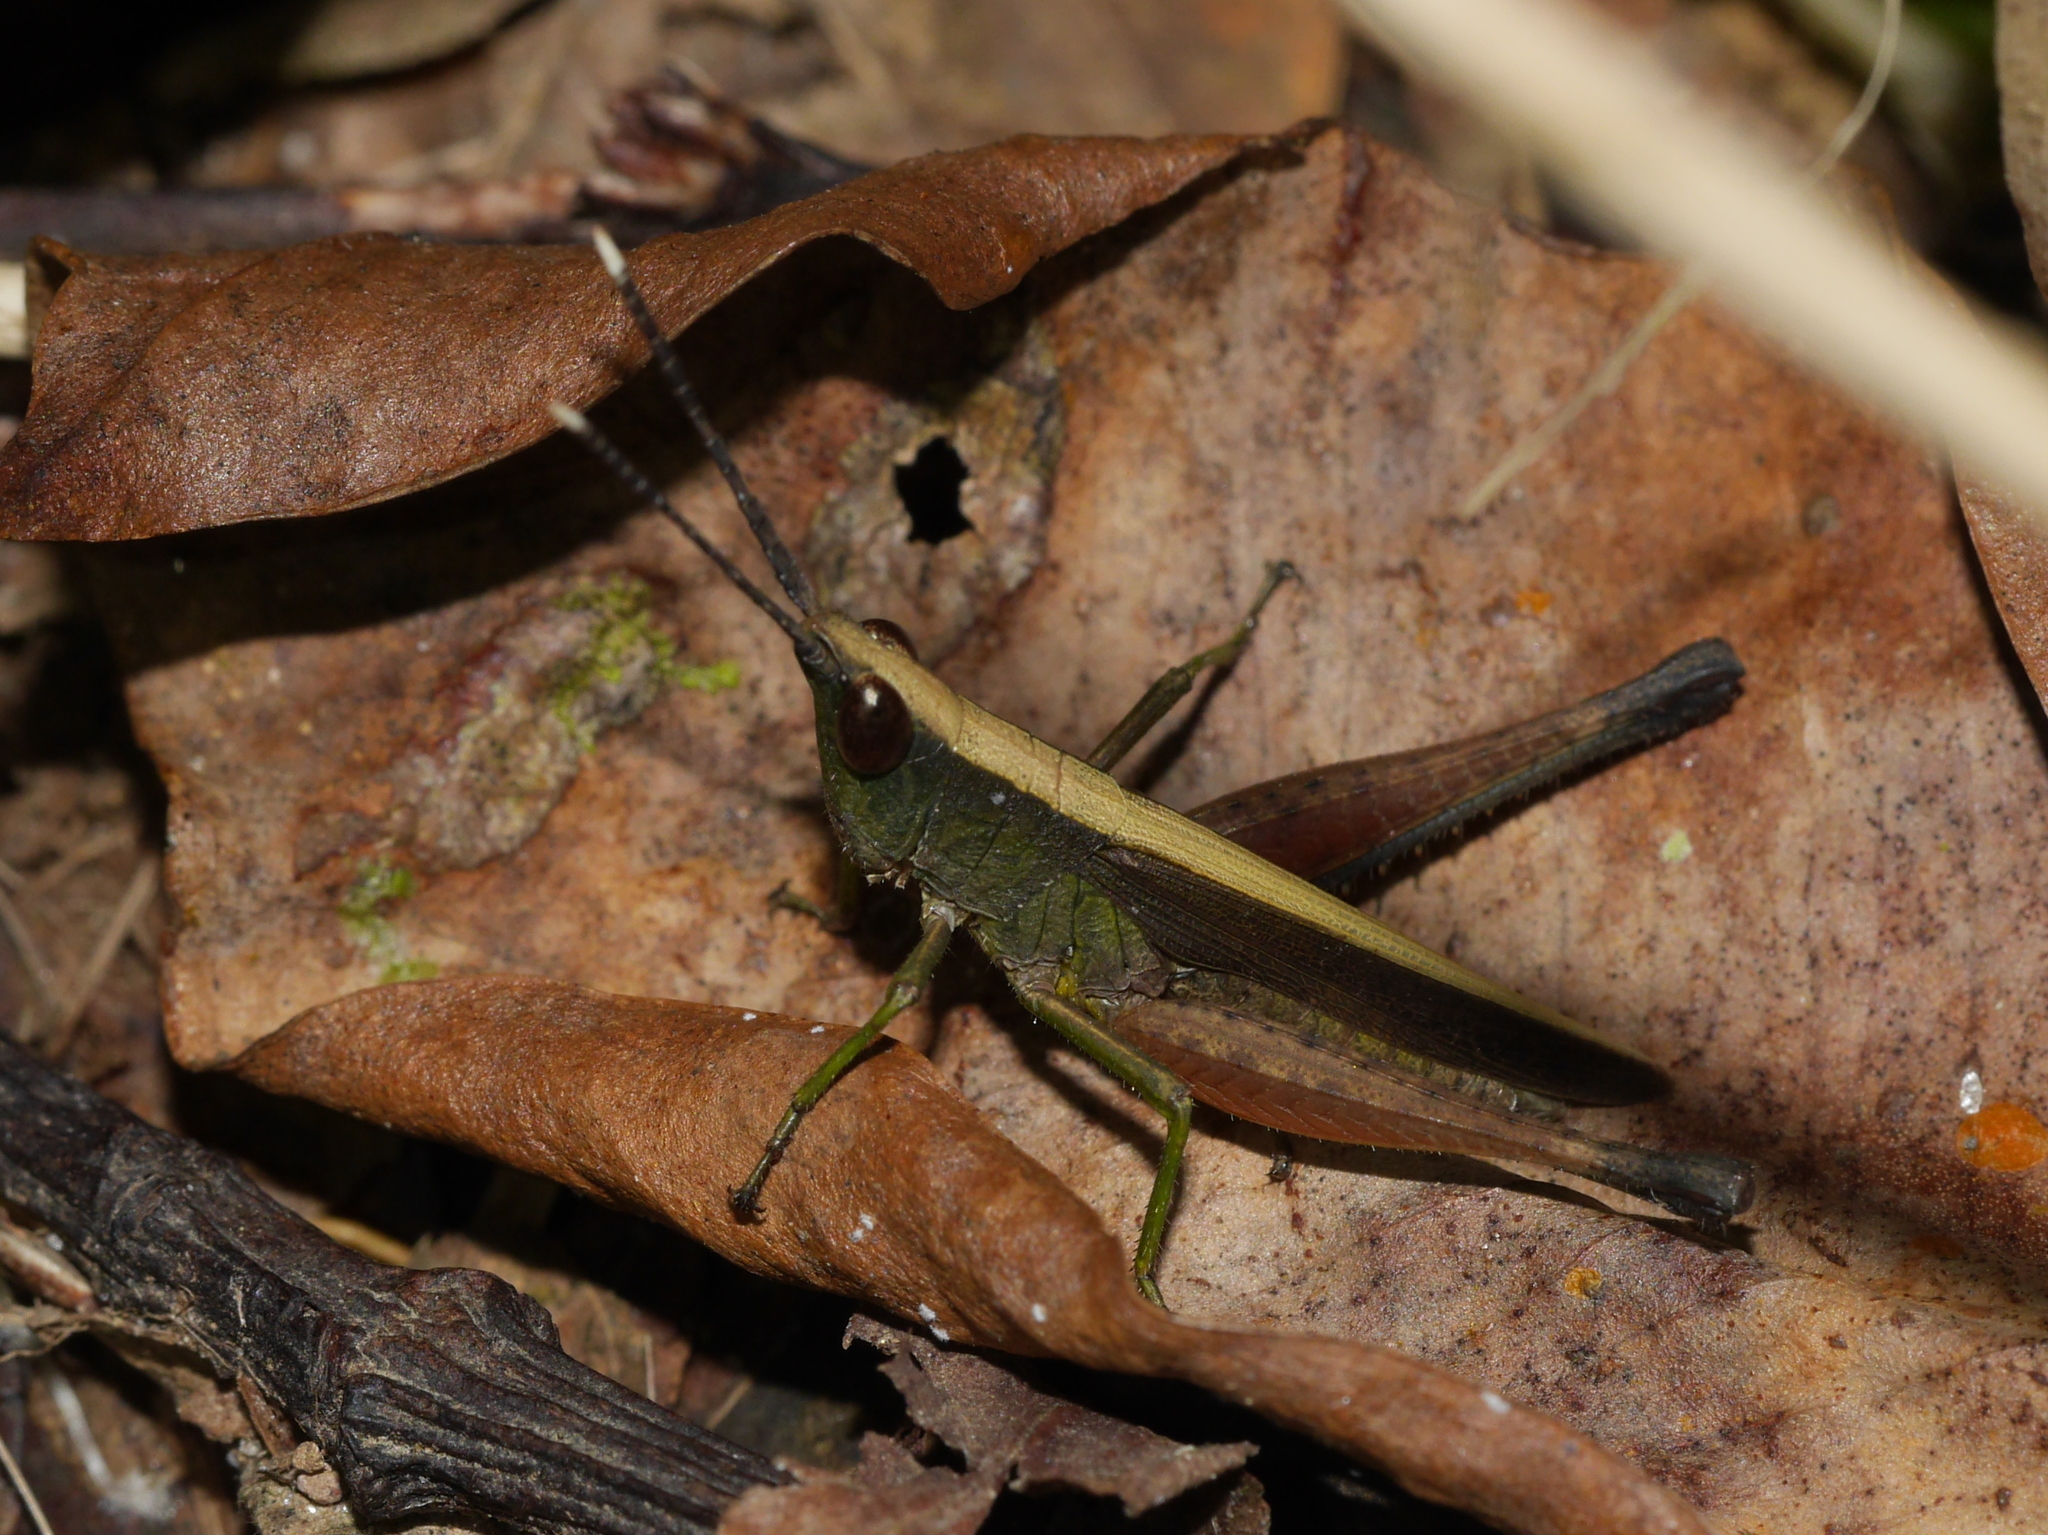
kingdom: Animalia
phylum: Arthropoda
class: Insecta
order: Orthoptera
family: Acrididae
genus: Phlaeoba
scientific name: Phlaeoba antennata
